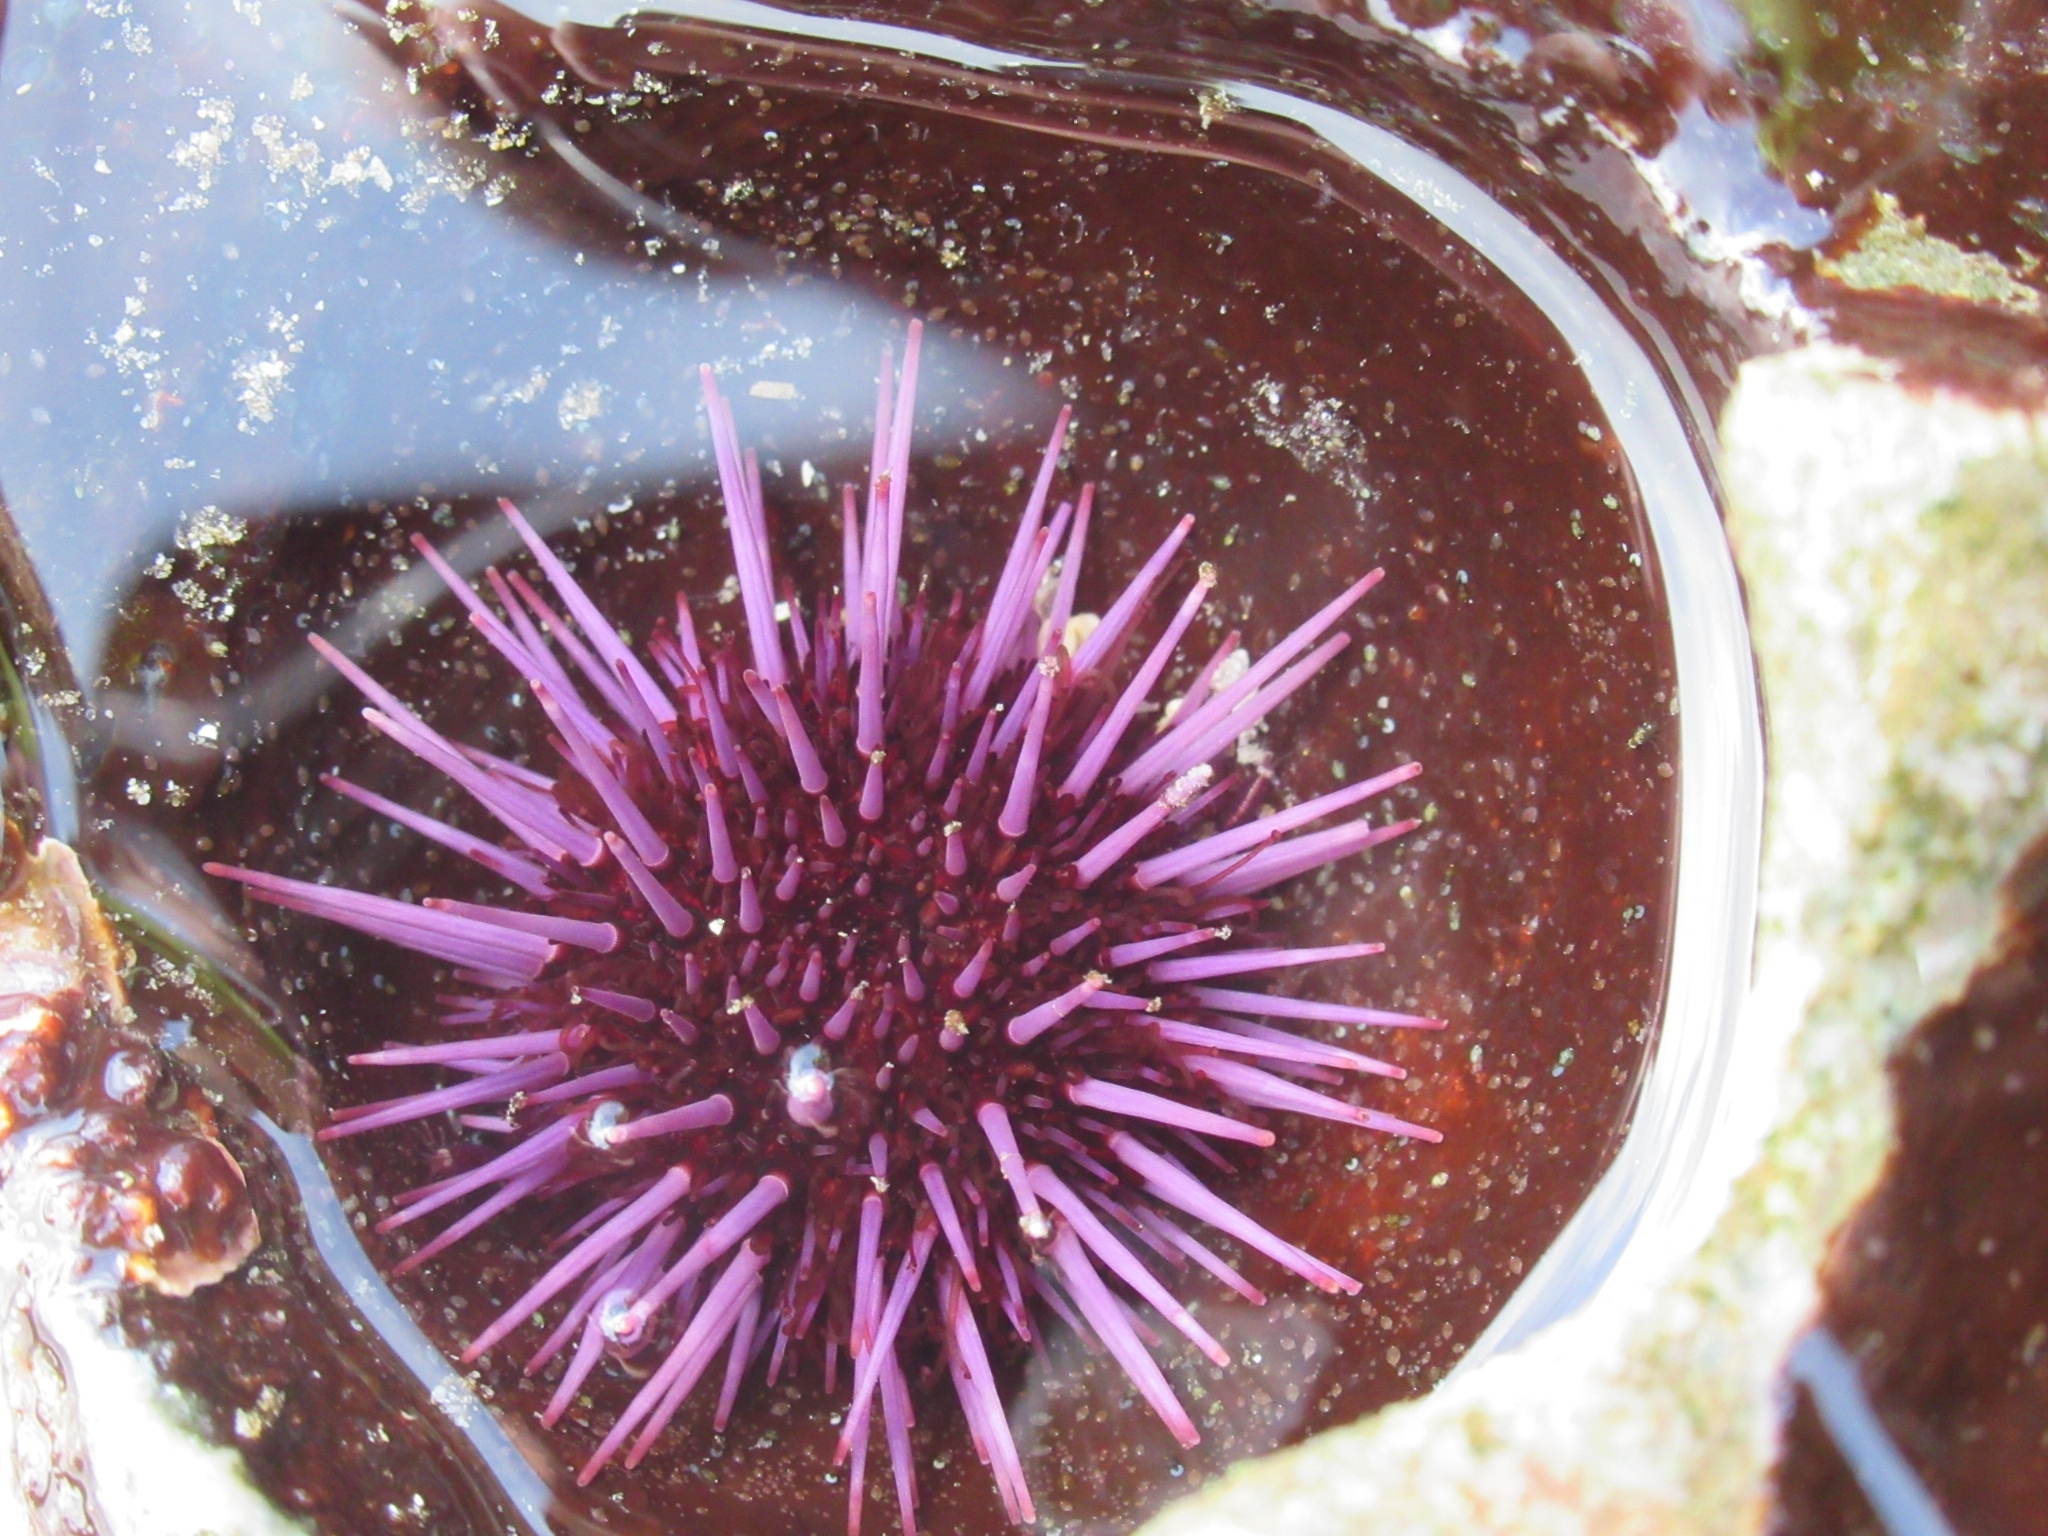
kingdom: Animalia
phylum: Echinodermata
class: Echinoidea
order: Camarodonta
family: Strongylocentrotidae
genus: Strongylocentrotus
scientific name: Strongylocentrotus purpuratus
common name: Purple sea urchin
